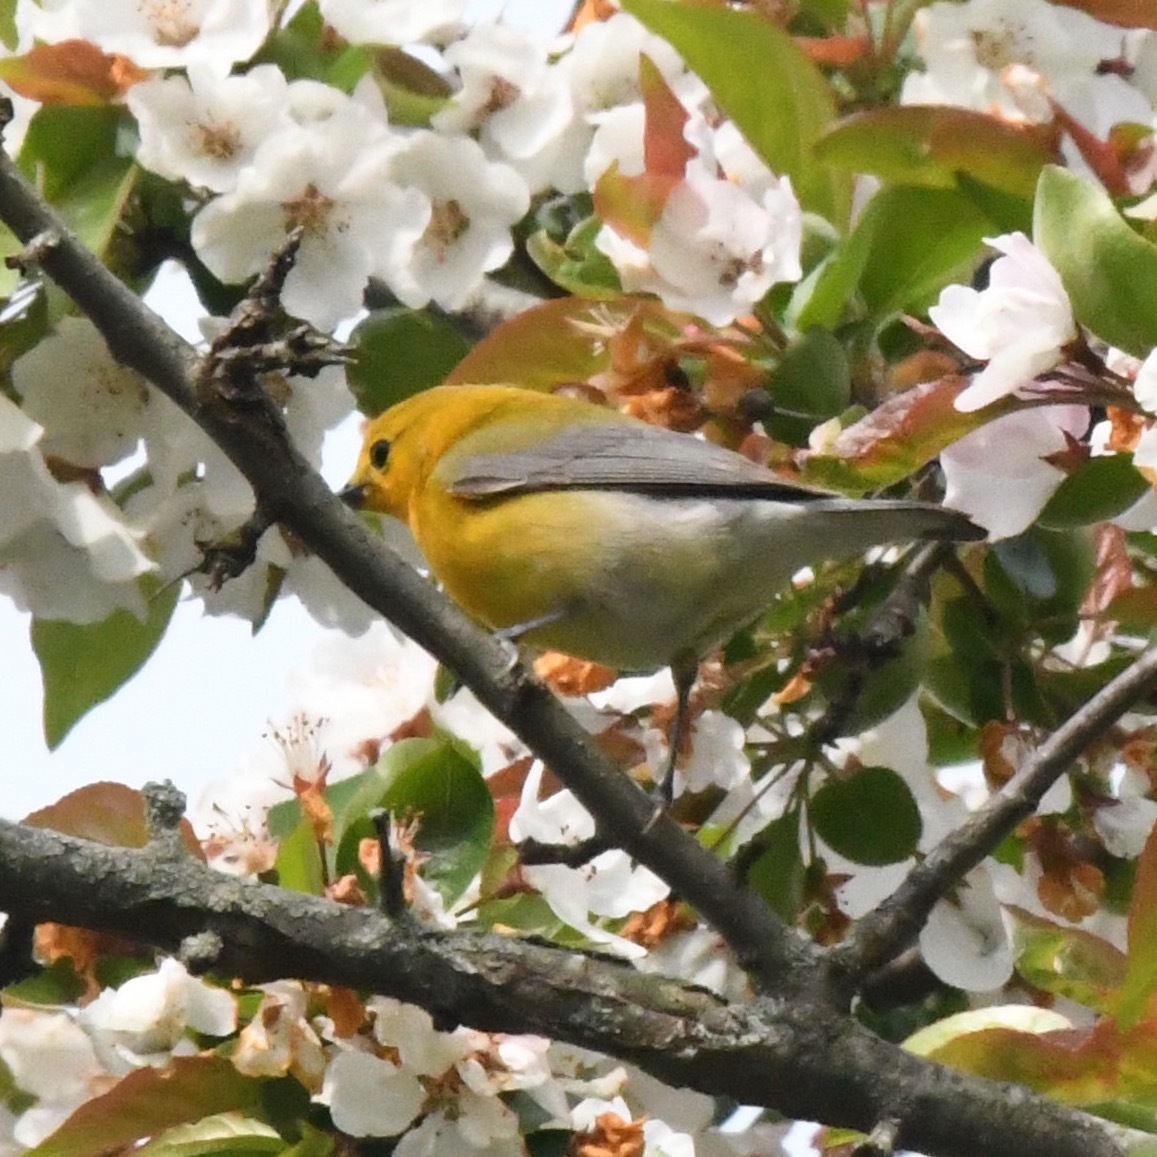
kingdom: Animalia
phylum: Chordata
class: Aves
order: Passeriformes
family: Parulidae
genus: Protonotaria
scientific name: Protonotaria citrea
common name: Prothonotary warbler
